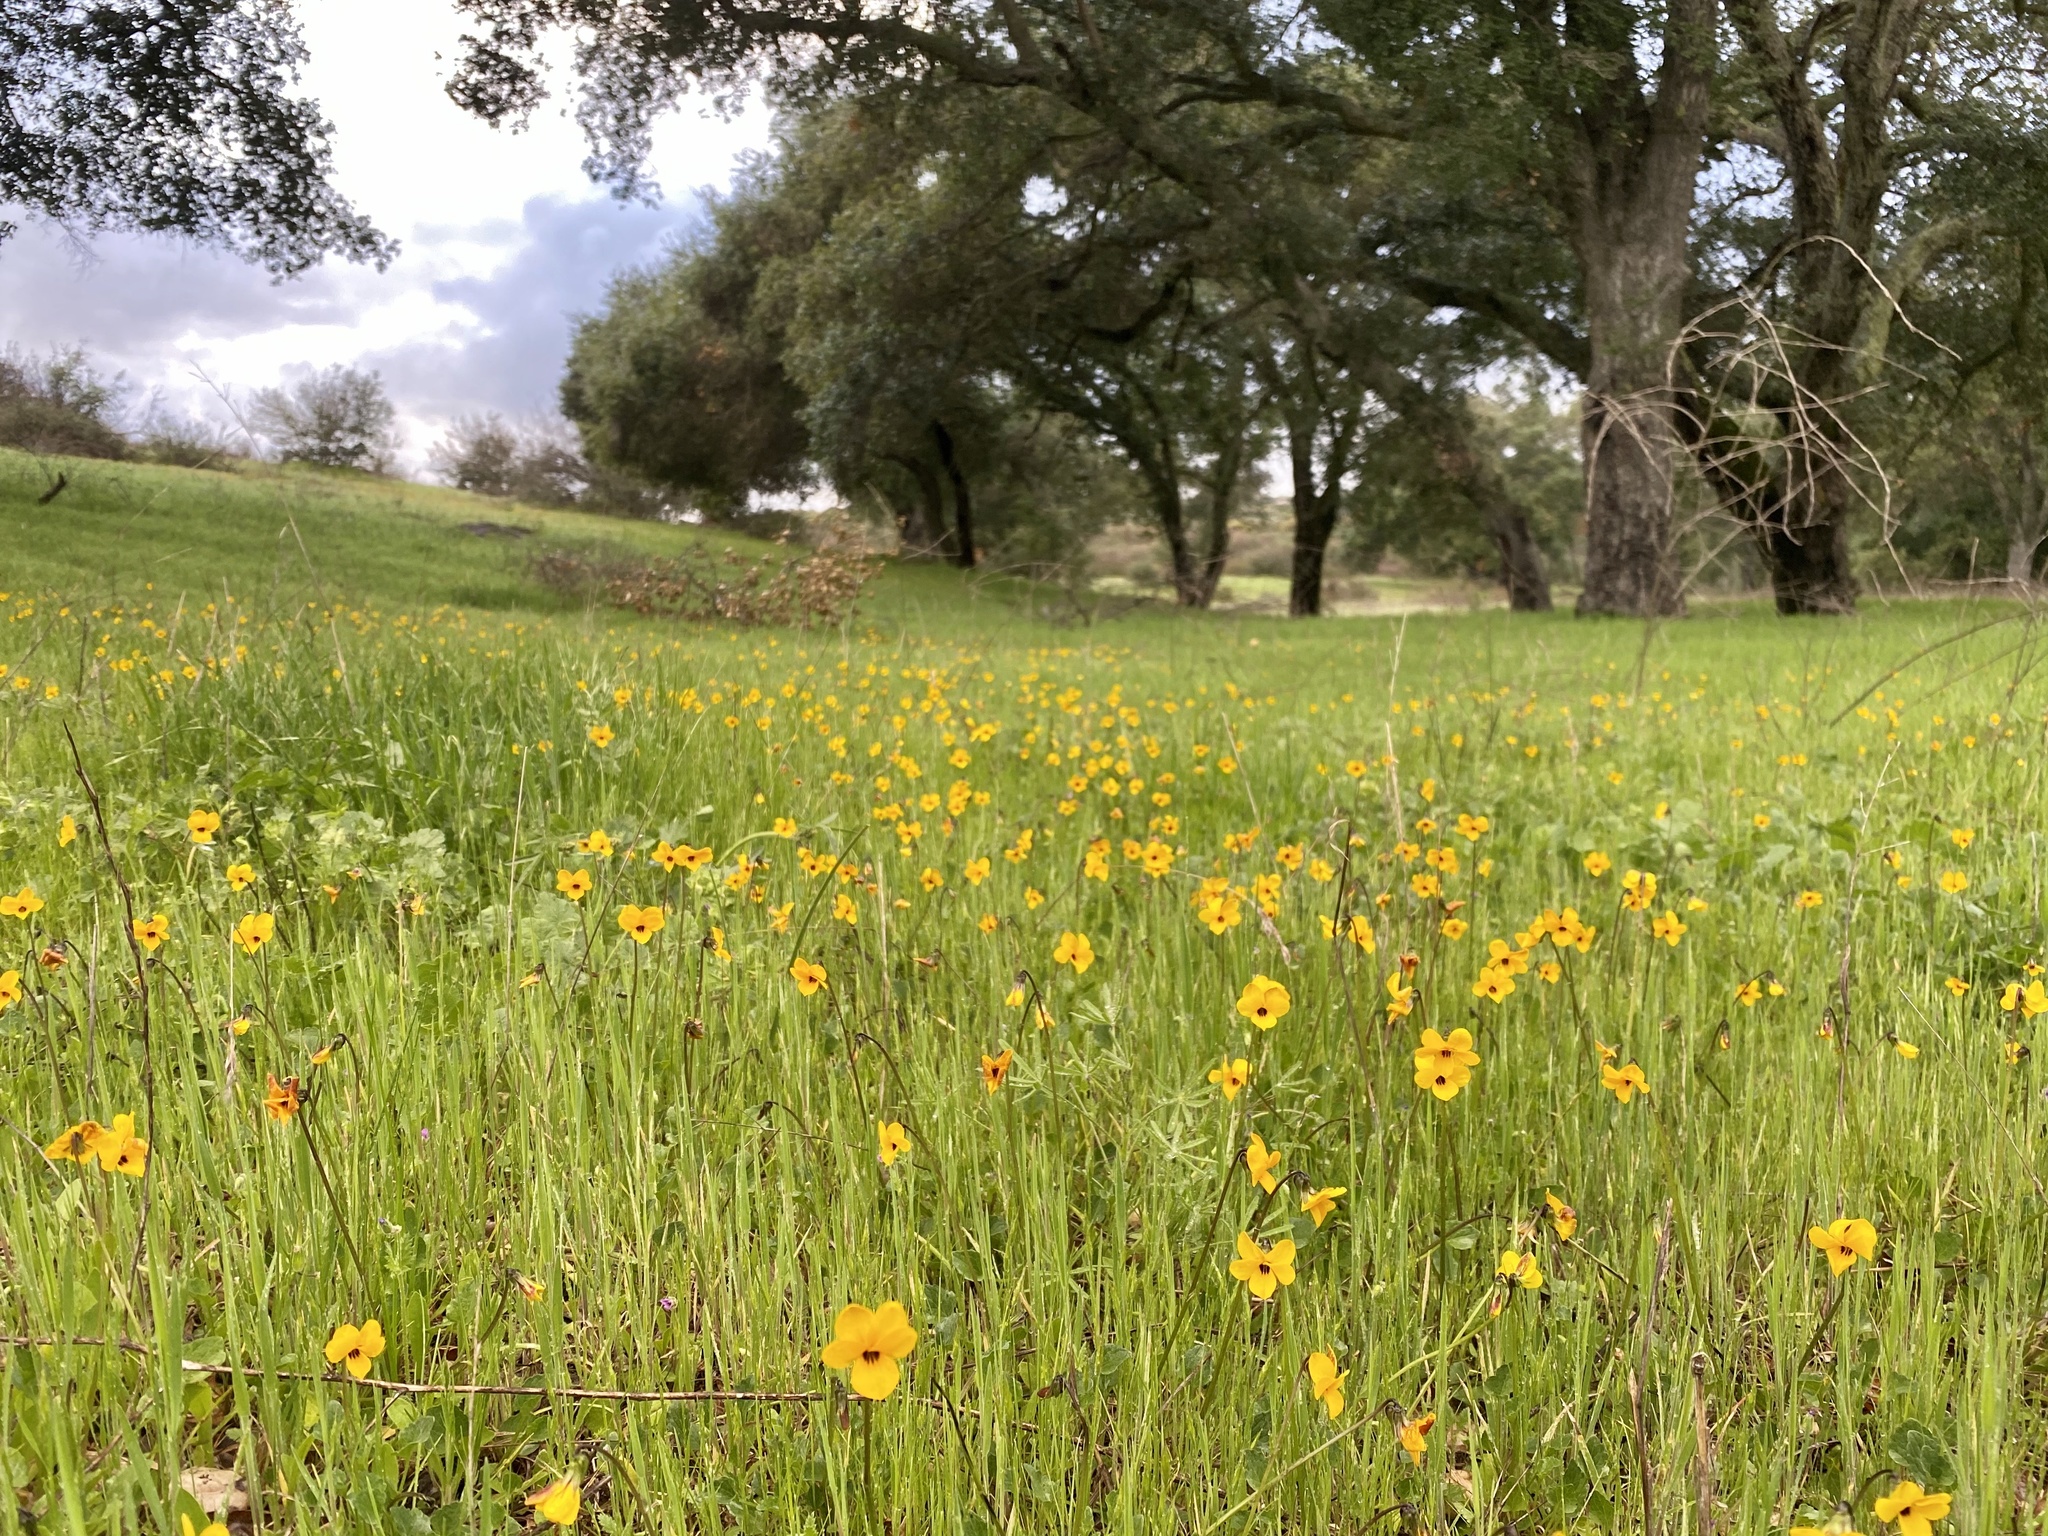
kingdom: Plantae
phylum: Tracheophyta
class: Magnoliopsida
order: Malpighiales
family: Violaceae
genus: Viola
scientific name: Viola pedunculata
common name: California golden violet
